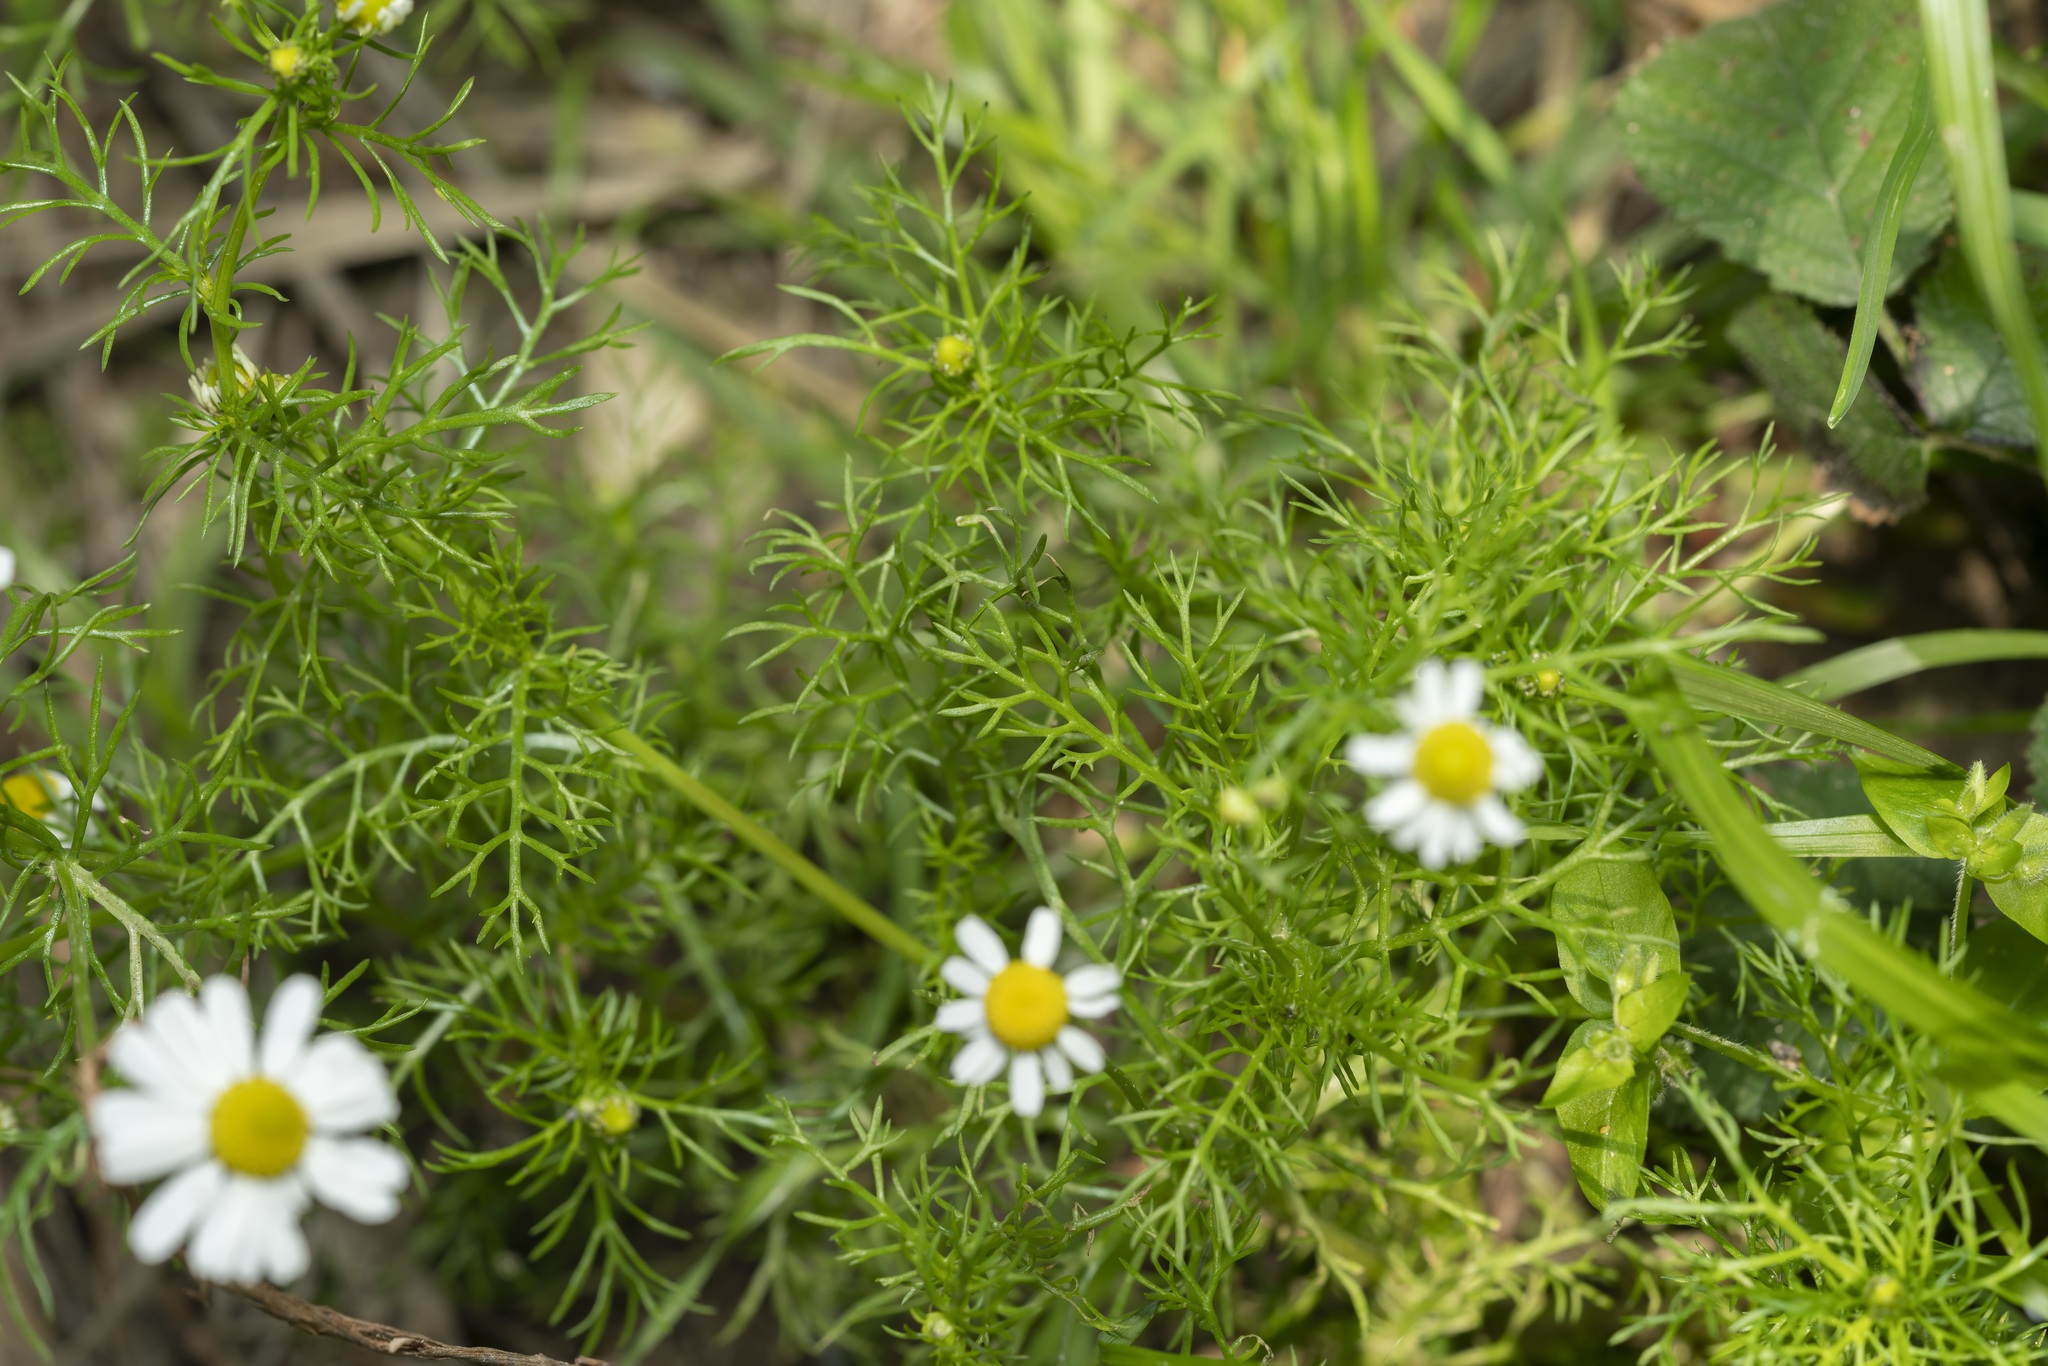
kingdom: Plantae
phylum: Tracheophyta
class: Magnoliopsida
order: Asterales
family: Asteraceae
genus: Matricaria
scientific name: Matricaria chamomilla
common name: Scented mayweed
